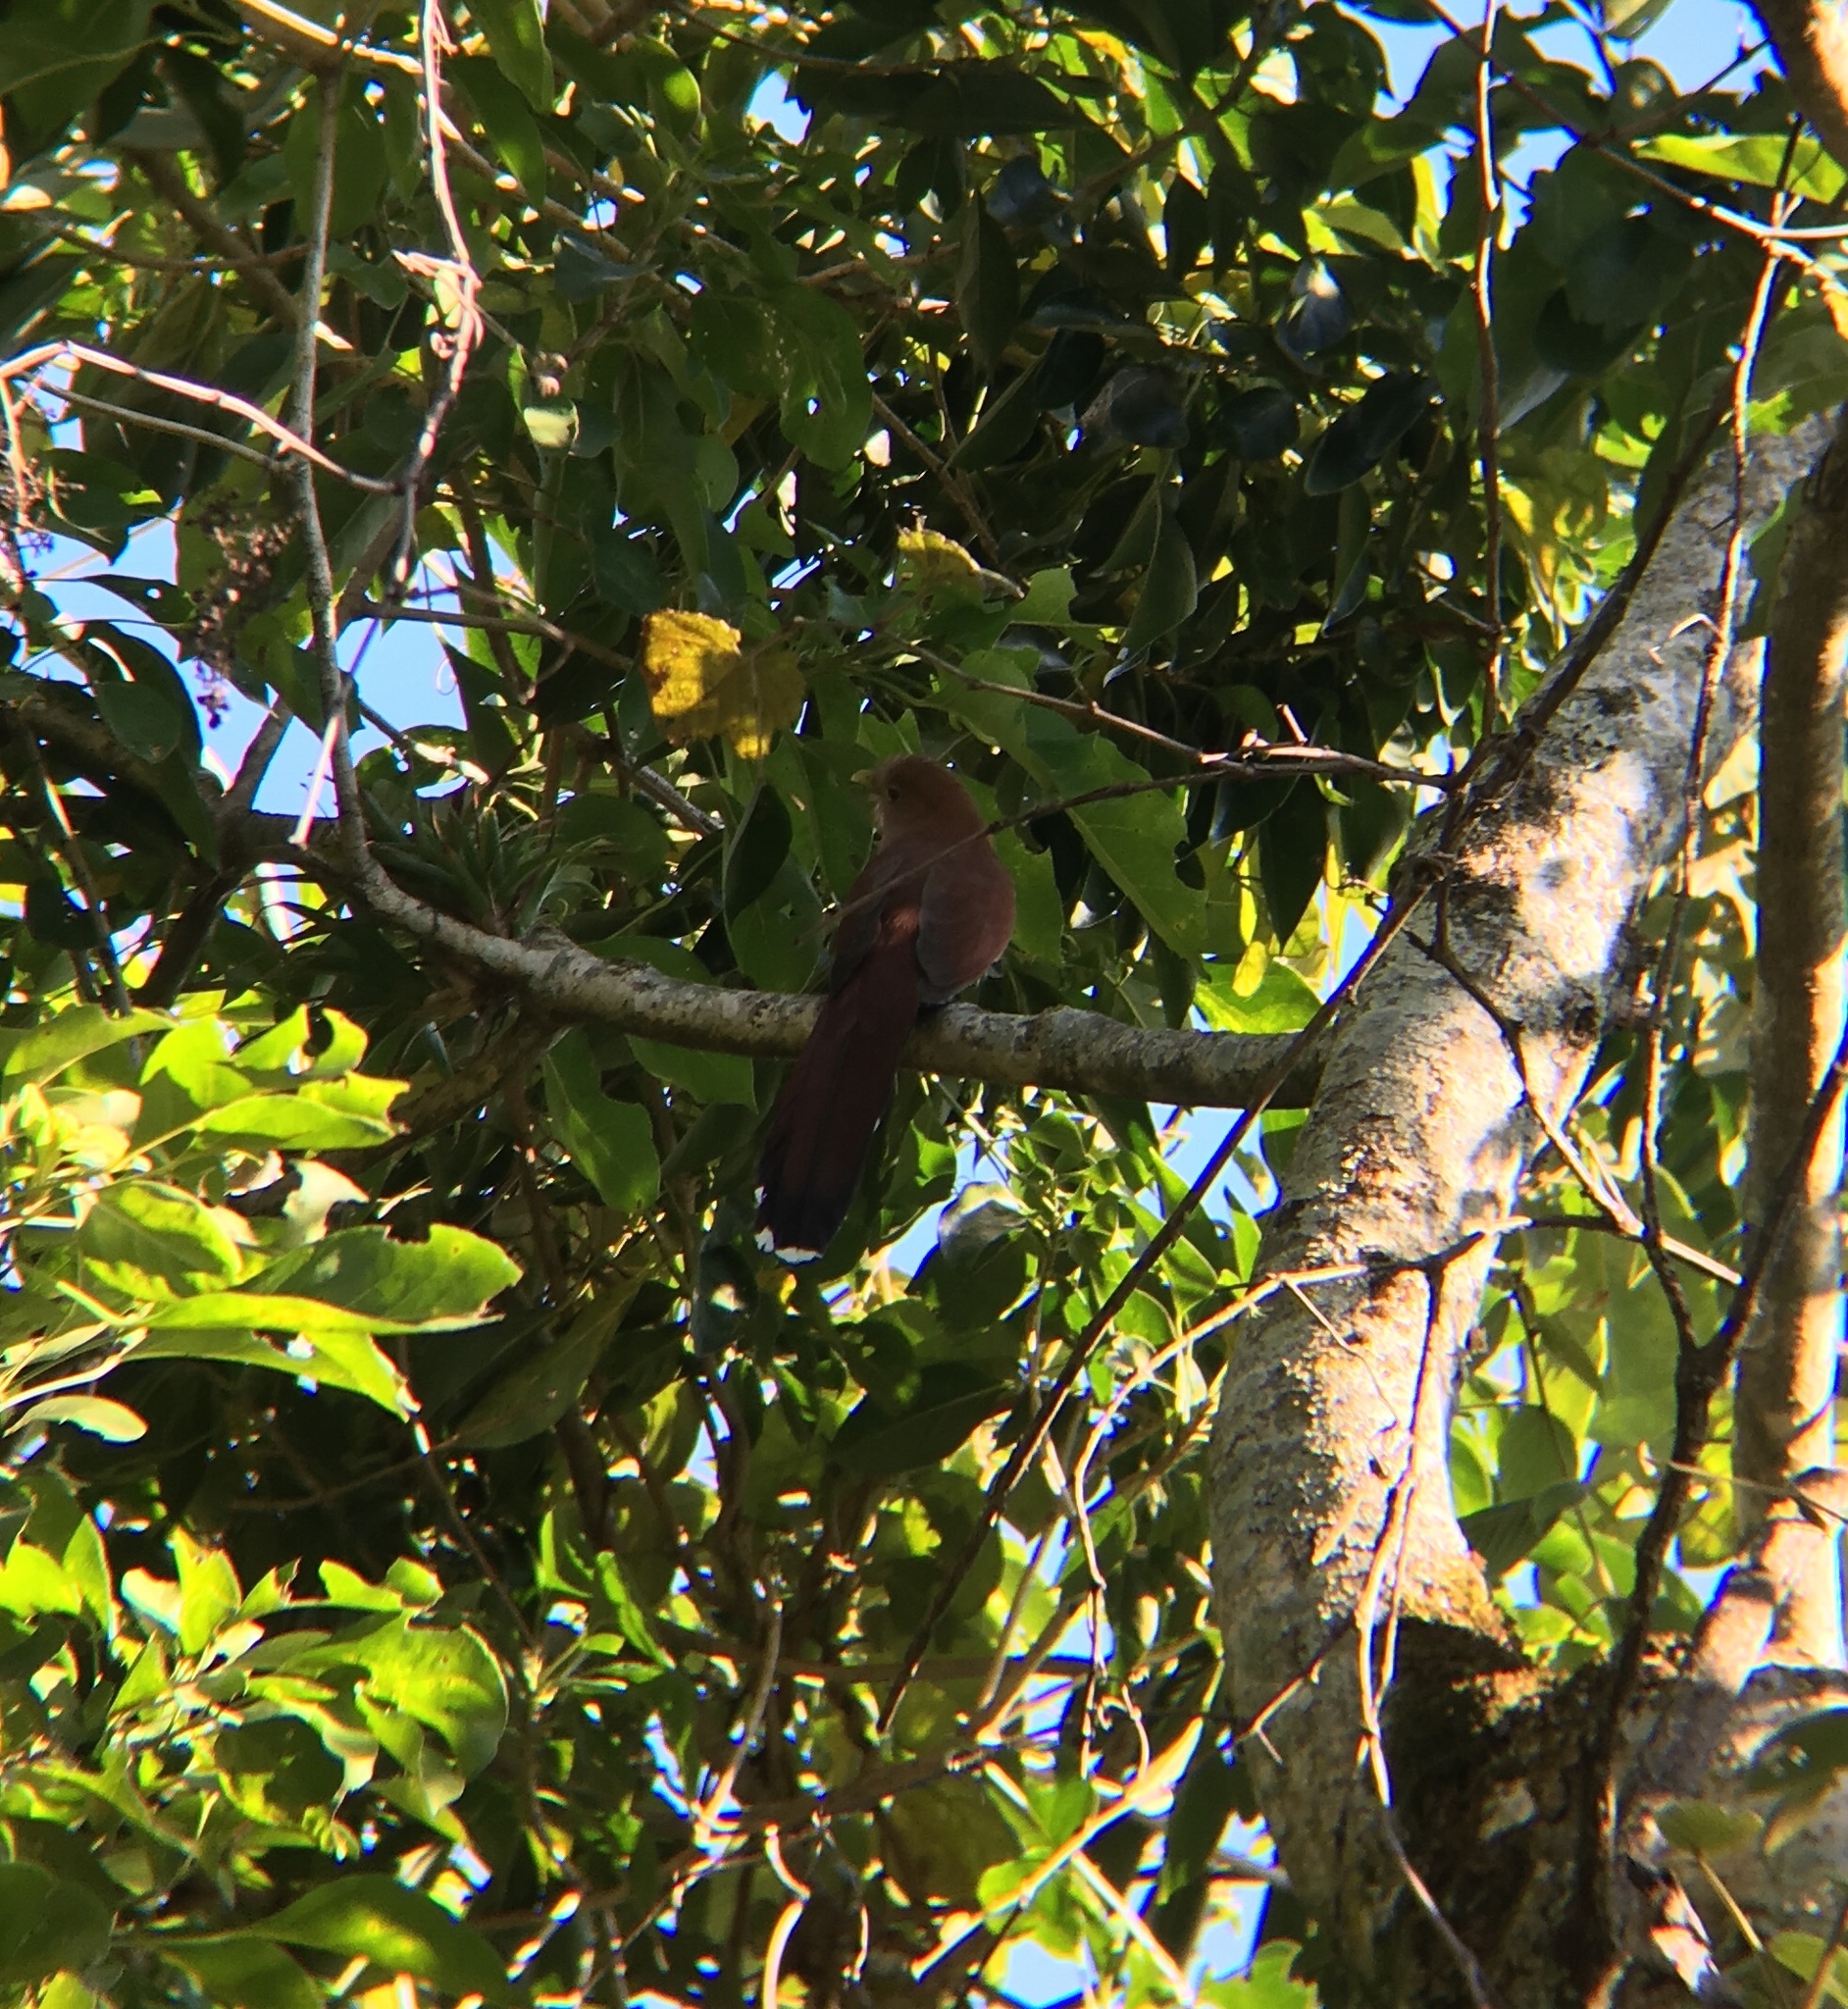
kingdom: Animalia
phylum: Chordata
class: Aves
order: Cuculiformes
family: Cuculidae
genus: Piaya
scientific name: Piaya cayana
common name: Squirrel cuckoo
